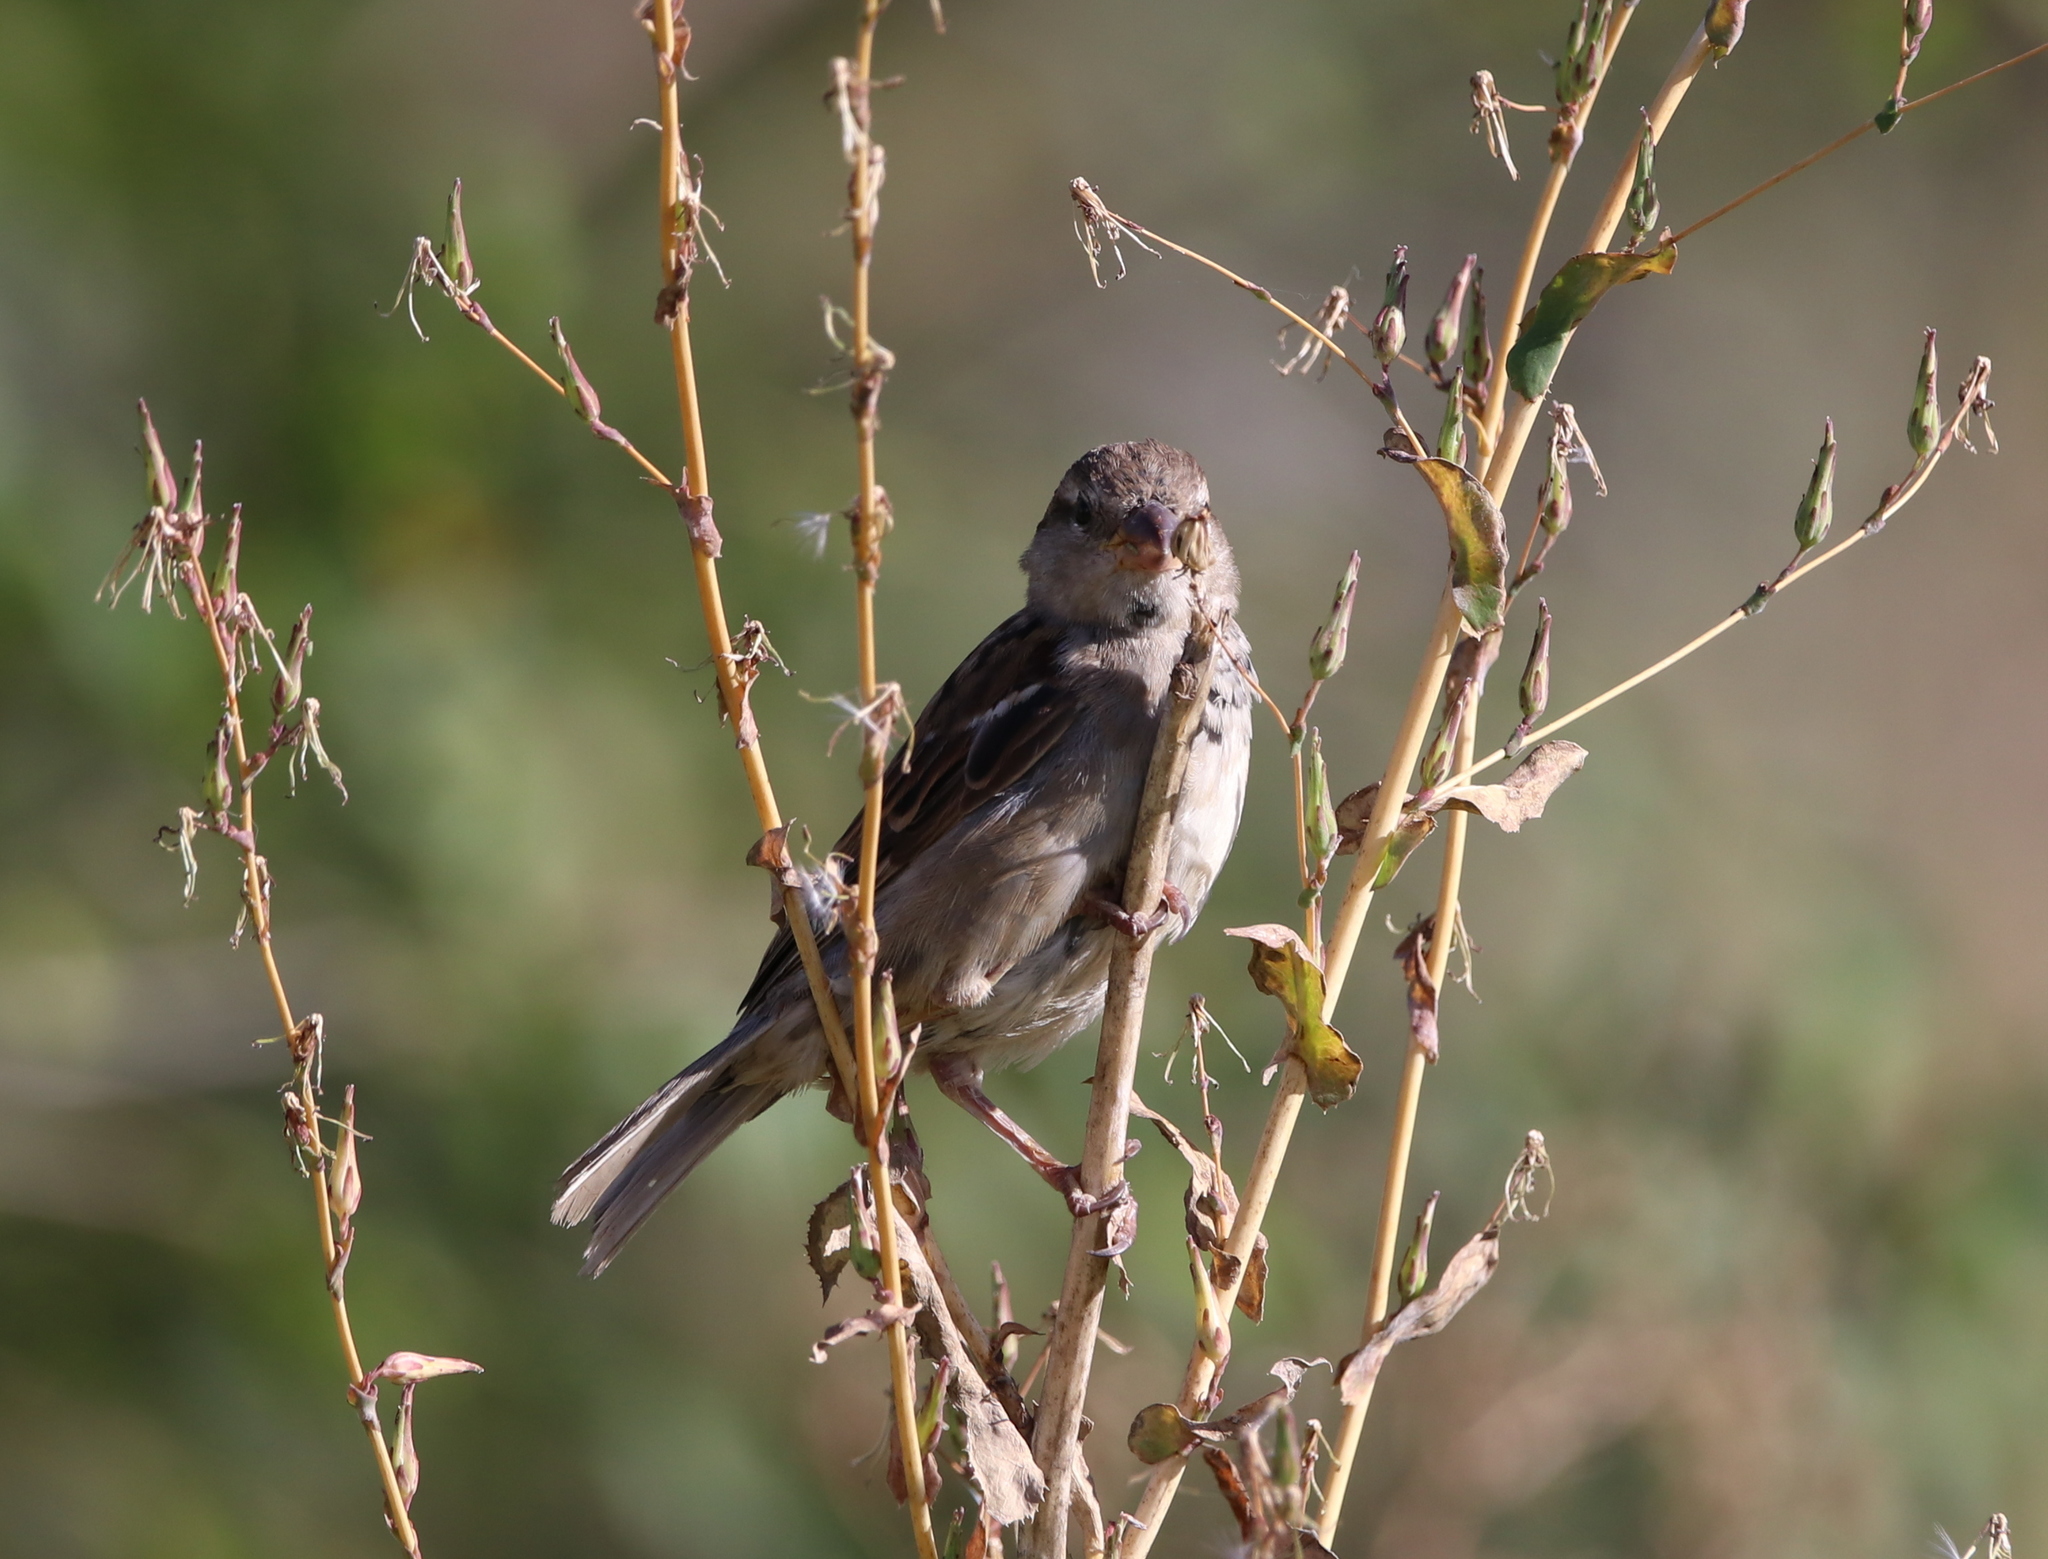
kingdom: Animalia
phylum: Chordata
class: Aves
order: Passeriformes
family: Passeridae
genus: Passer
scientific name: Passer domesticus
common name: House sparrow
